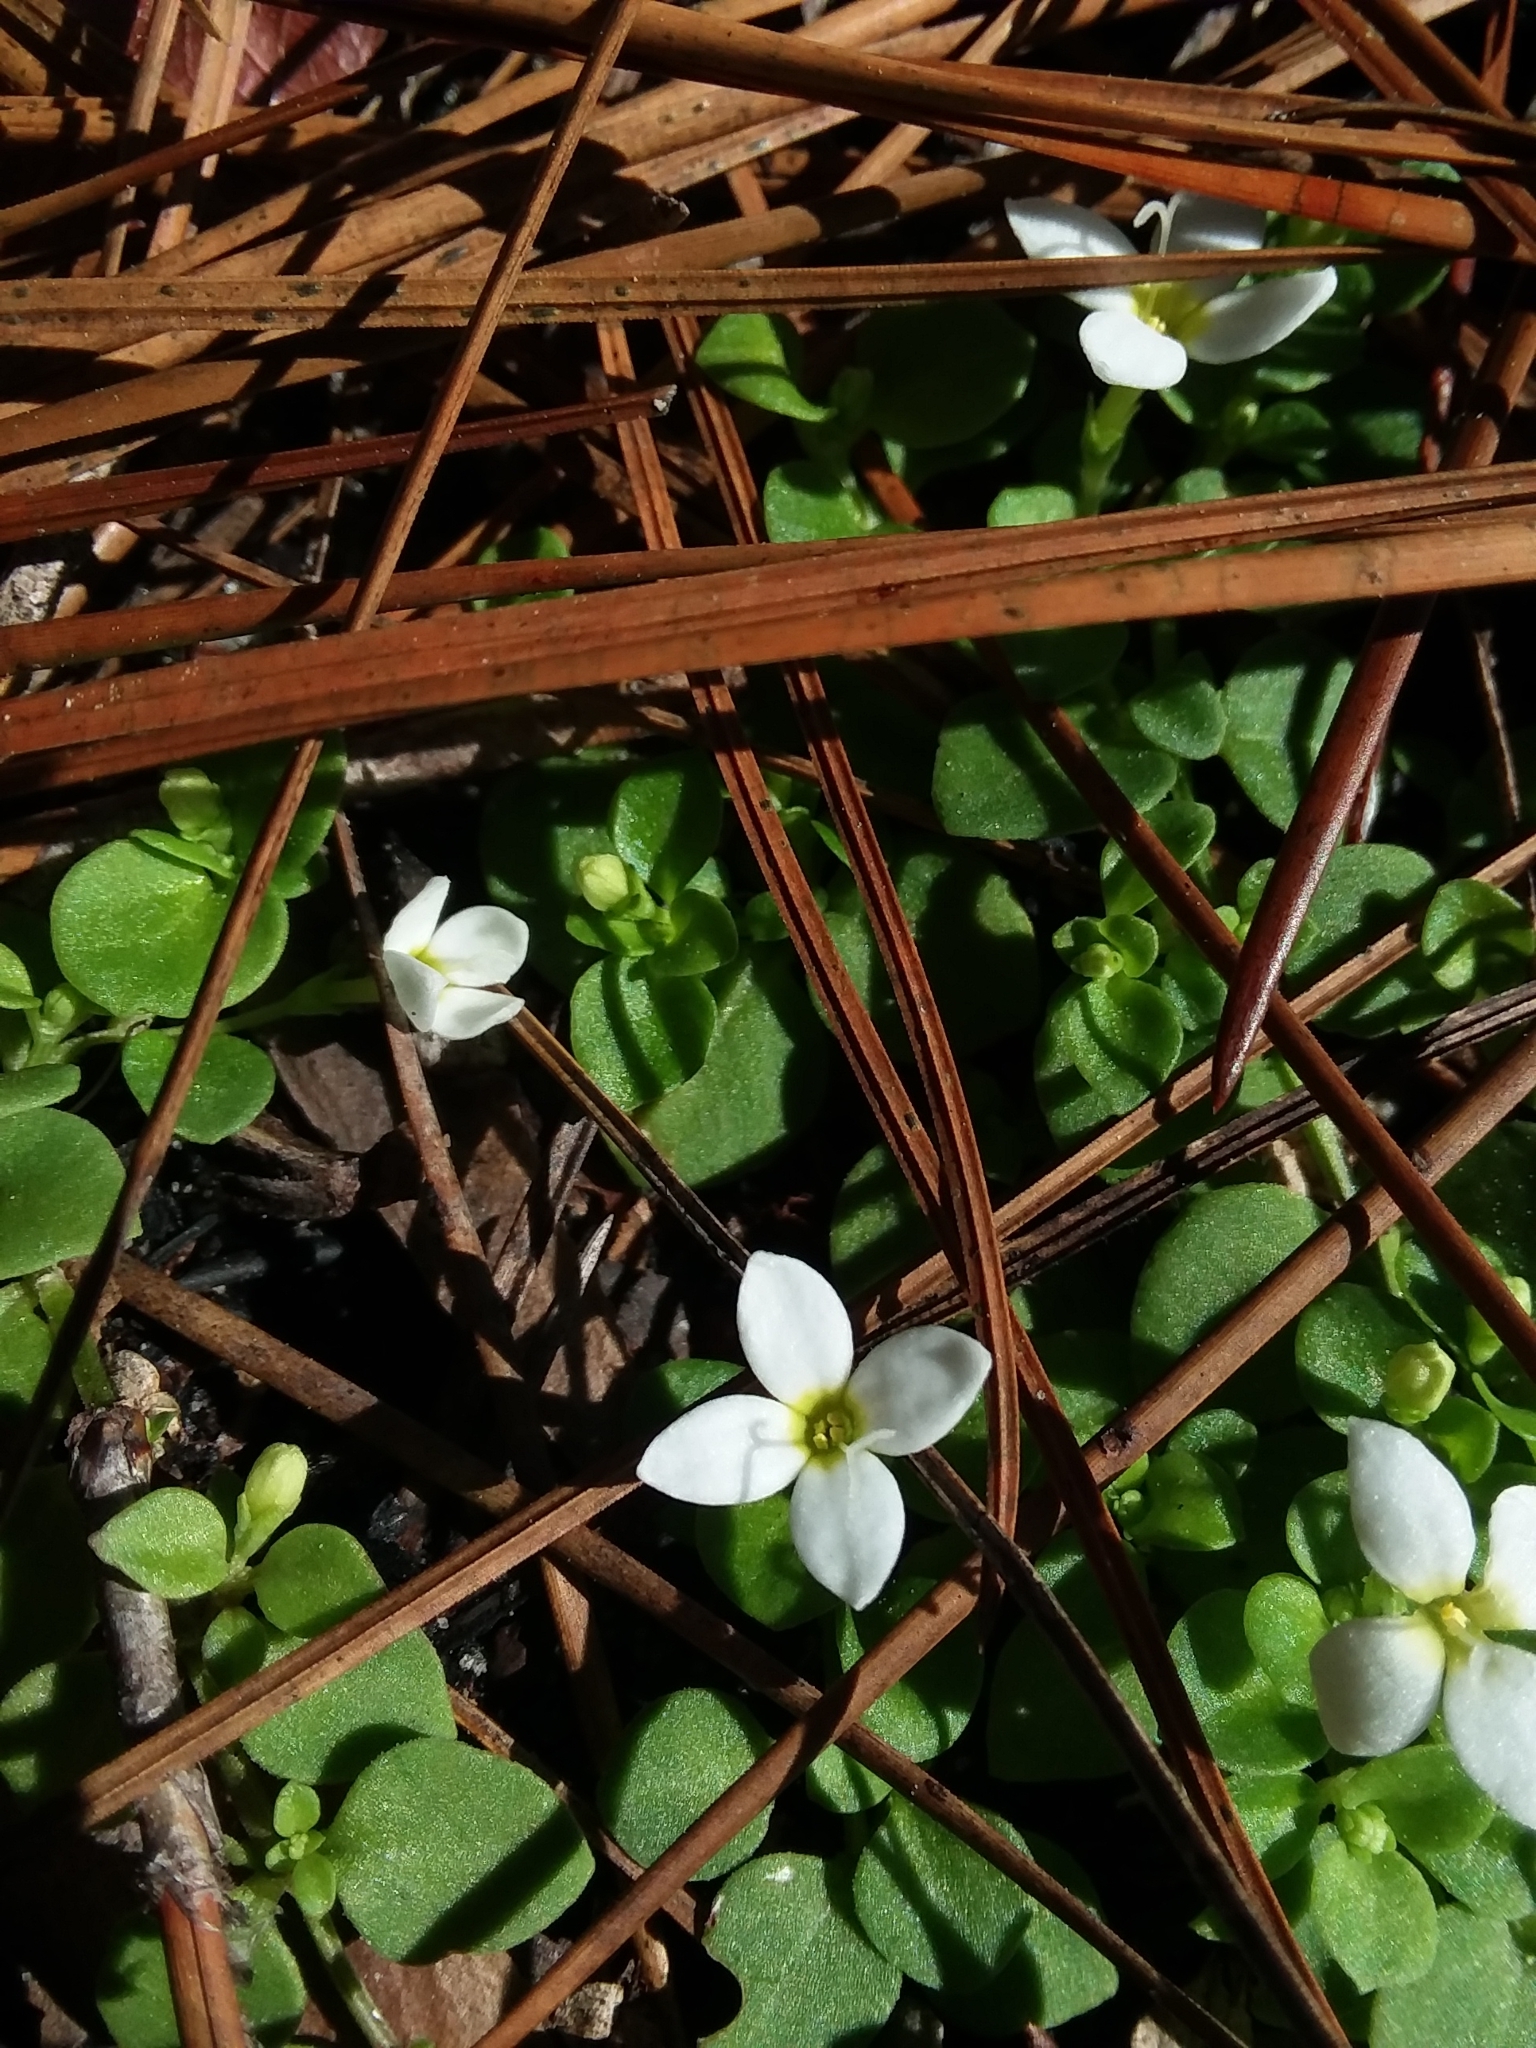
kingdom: Plantae
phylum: Tracheophyta
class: Magnoliopsida
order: Gentianales
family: Rubiaceae
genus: Houstonia
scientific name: Houstonia procumbens
